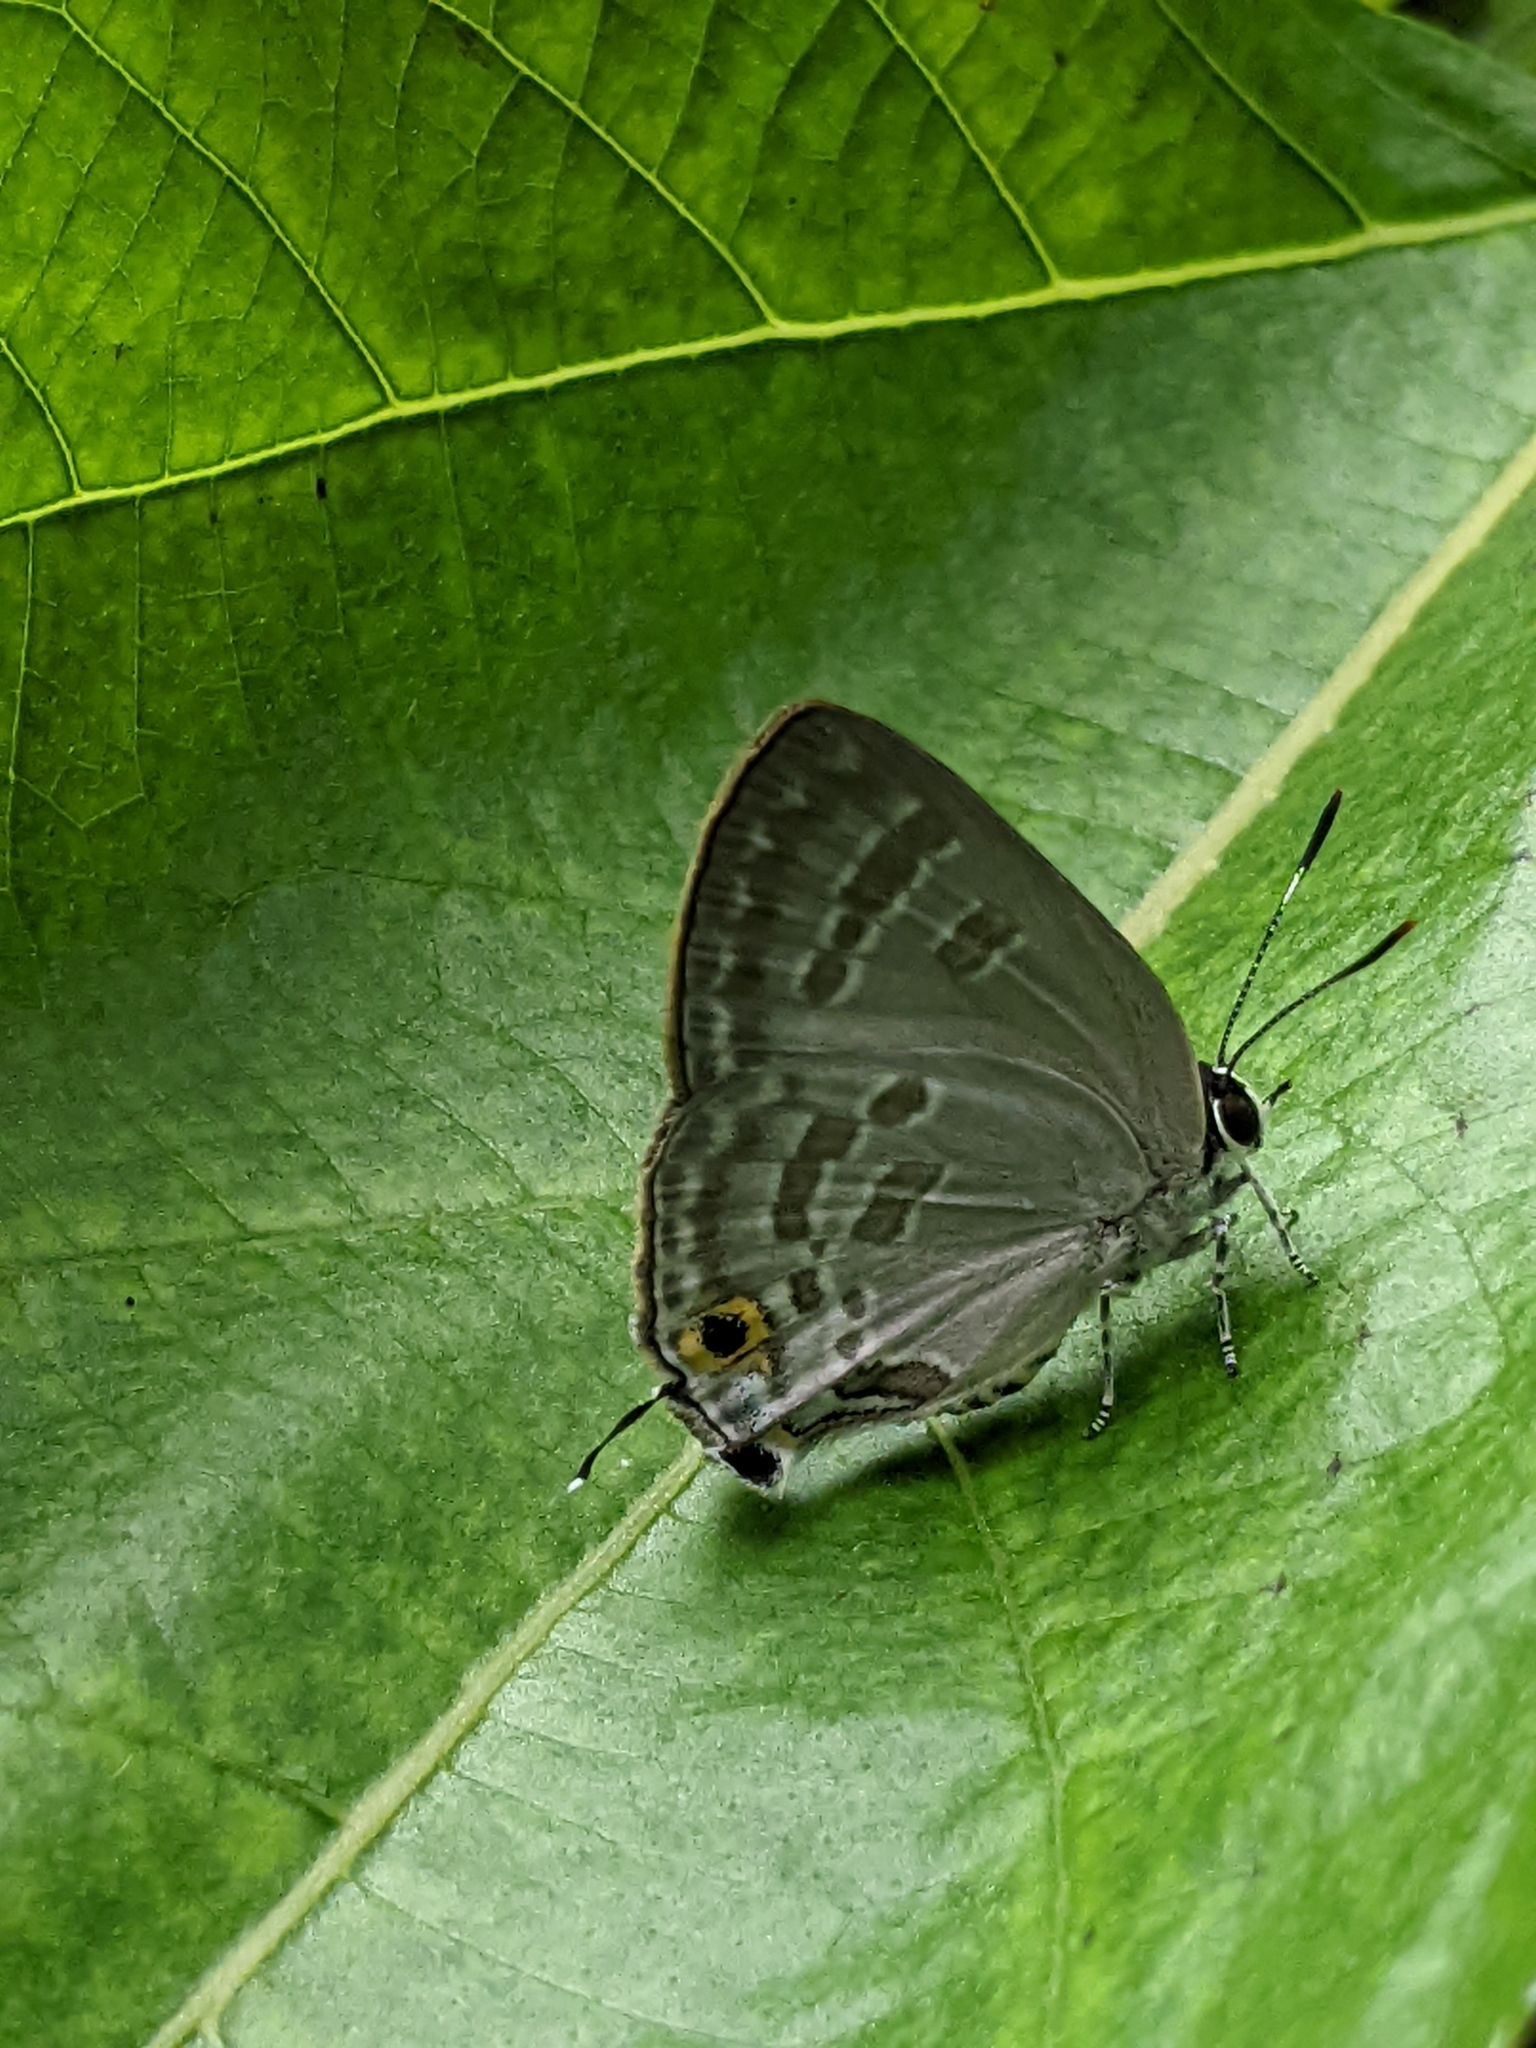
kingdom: Animalia
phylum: Arthropoda
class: Insecta
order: Lepidoptera
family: Lycaenidae
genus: Deudorix
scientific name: Deudorix elioti
